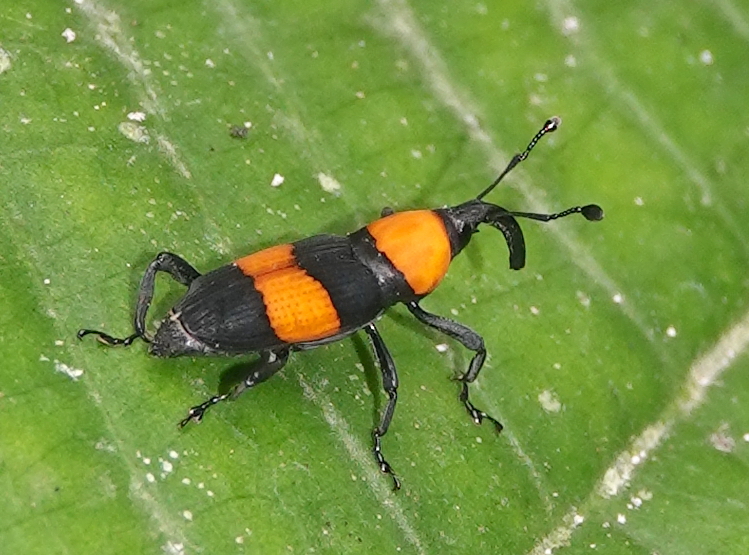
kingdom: Animalia
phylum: Arthropoda
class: Insecta
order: Coleoptera
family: Dryophthoridae
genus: Rhodobaenus
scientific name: Rhodobaenus augustinus
